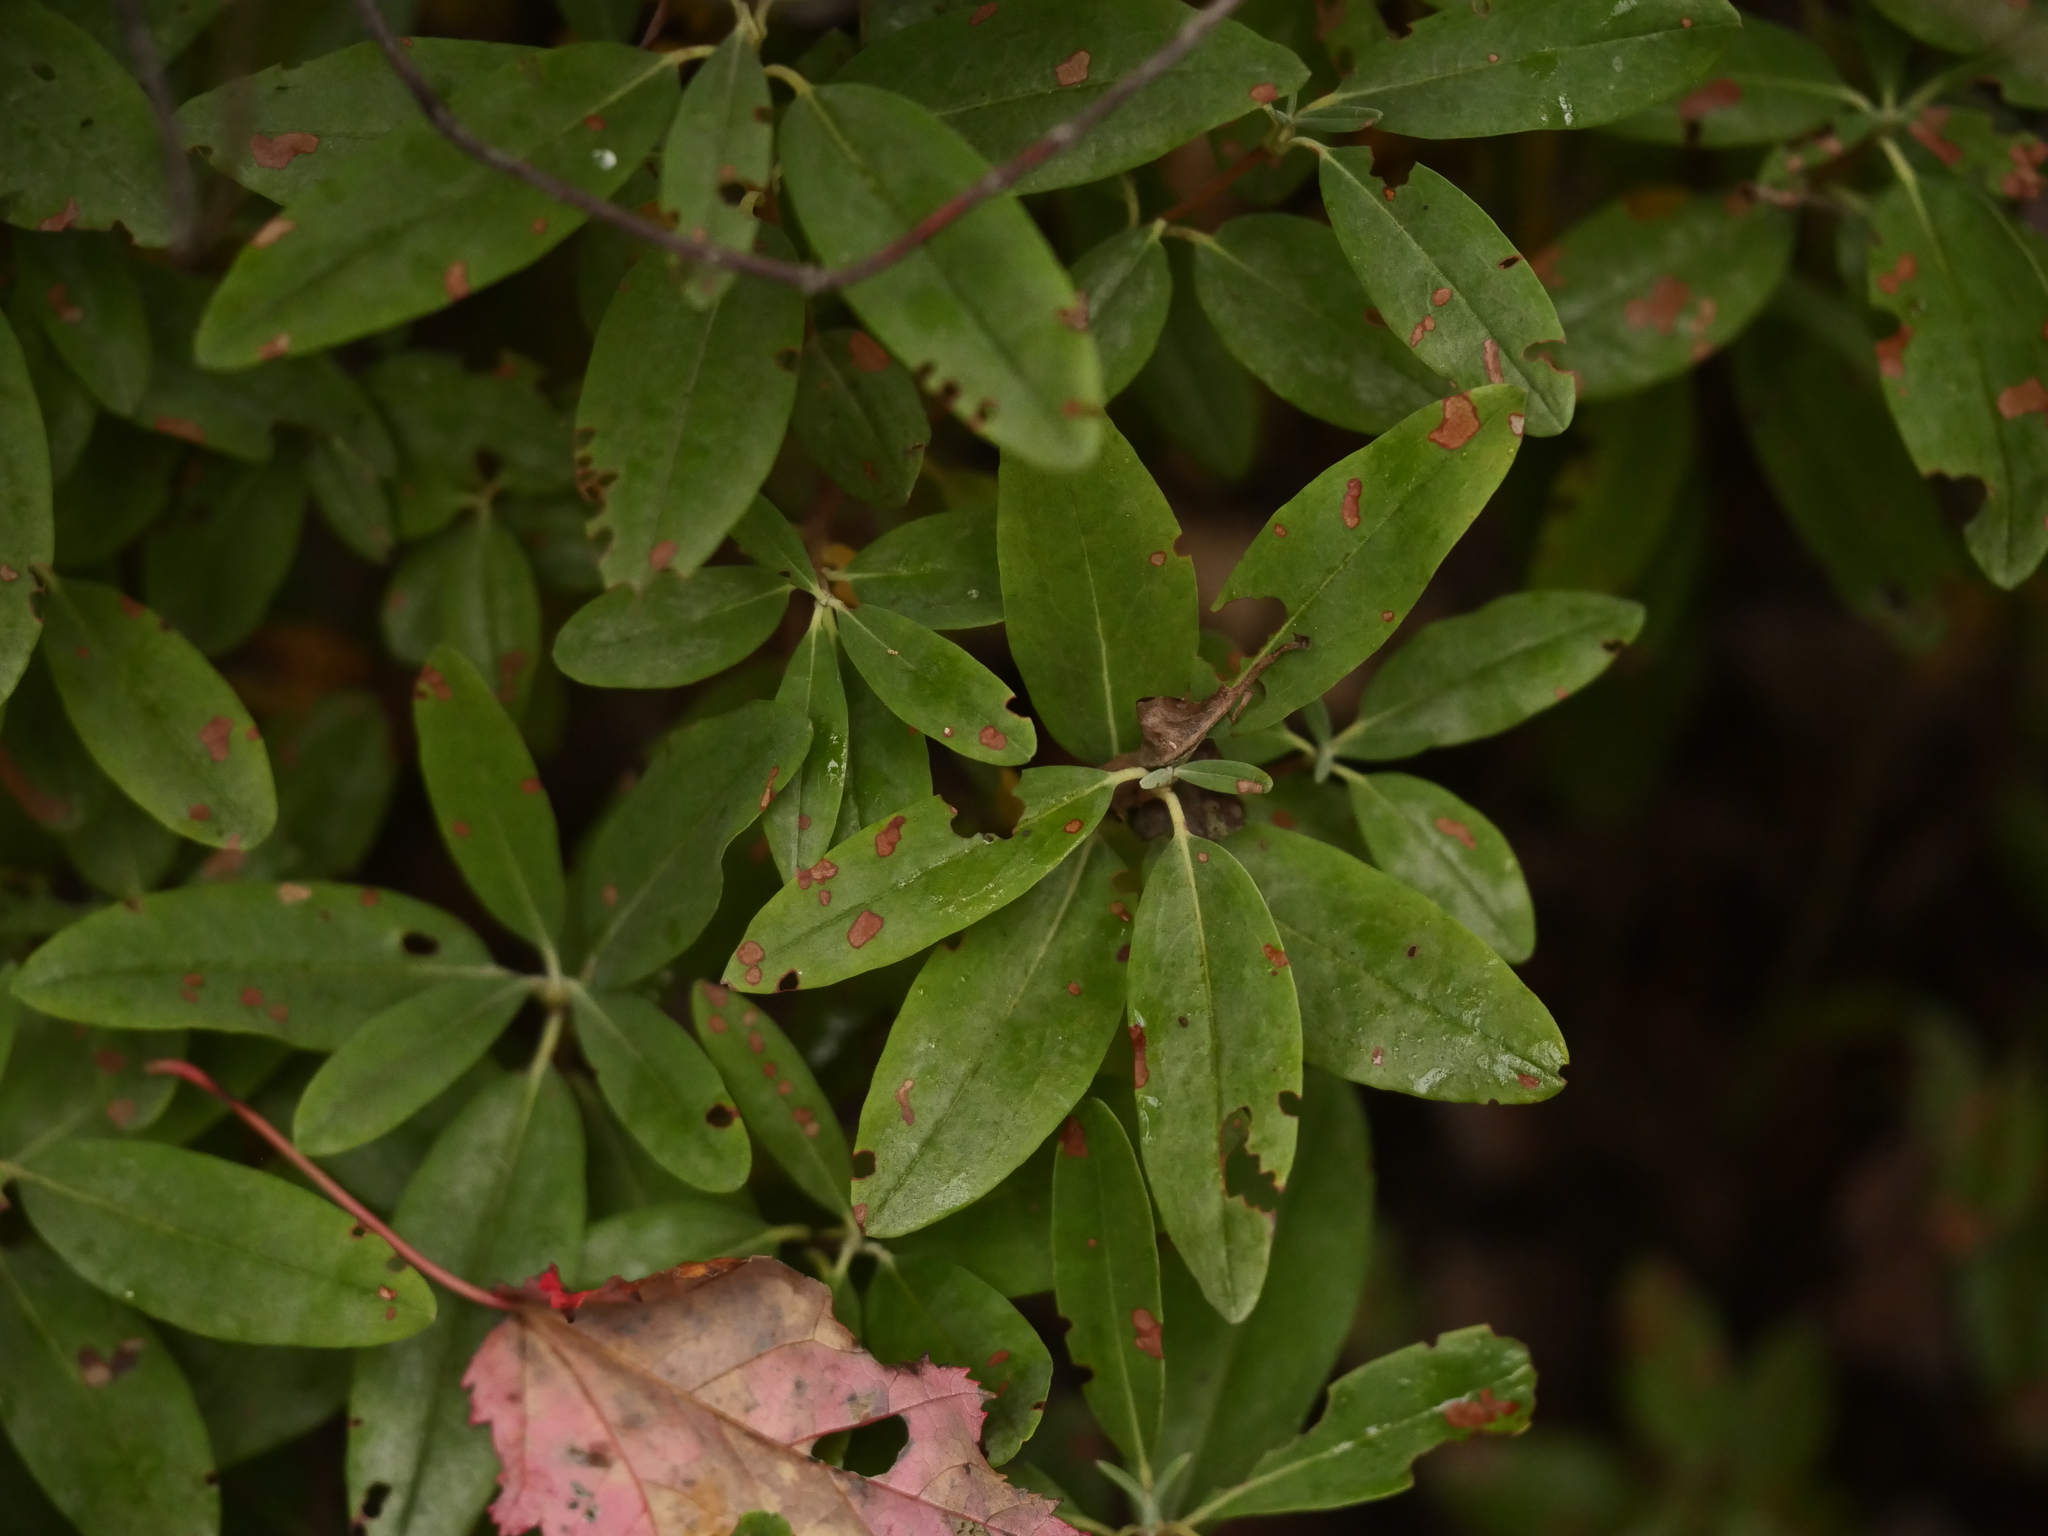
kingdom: Plantae
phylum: Tracheophyta
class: Magnoliopsida
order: Ericales
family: Ericaceae
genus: Kalmia
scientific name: Kalmia angustifolia
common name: Sheep-laurel
